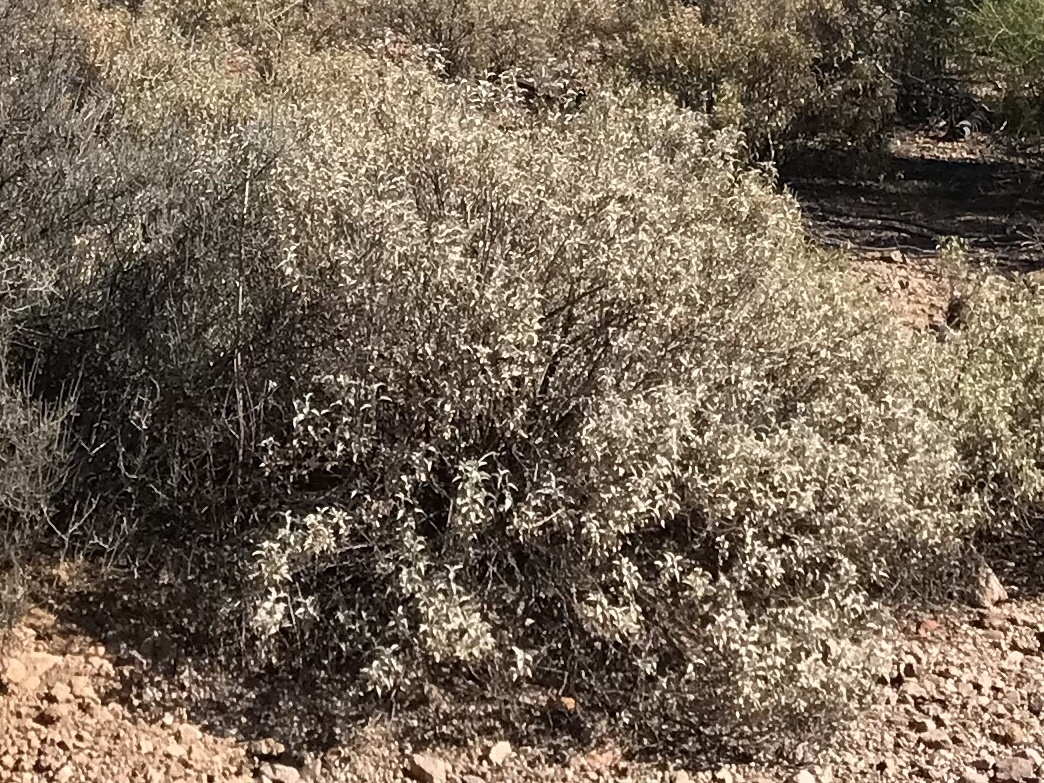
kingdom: Plantae
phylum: Tracheophyta
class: Magnoliopsida
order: Asterales
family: Asteraceae
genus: Ambrosia
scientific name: Ambrosia deltoidea
